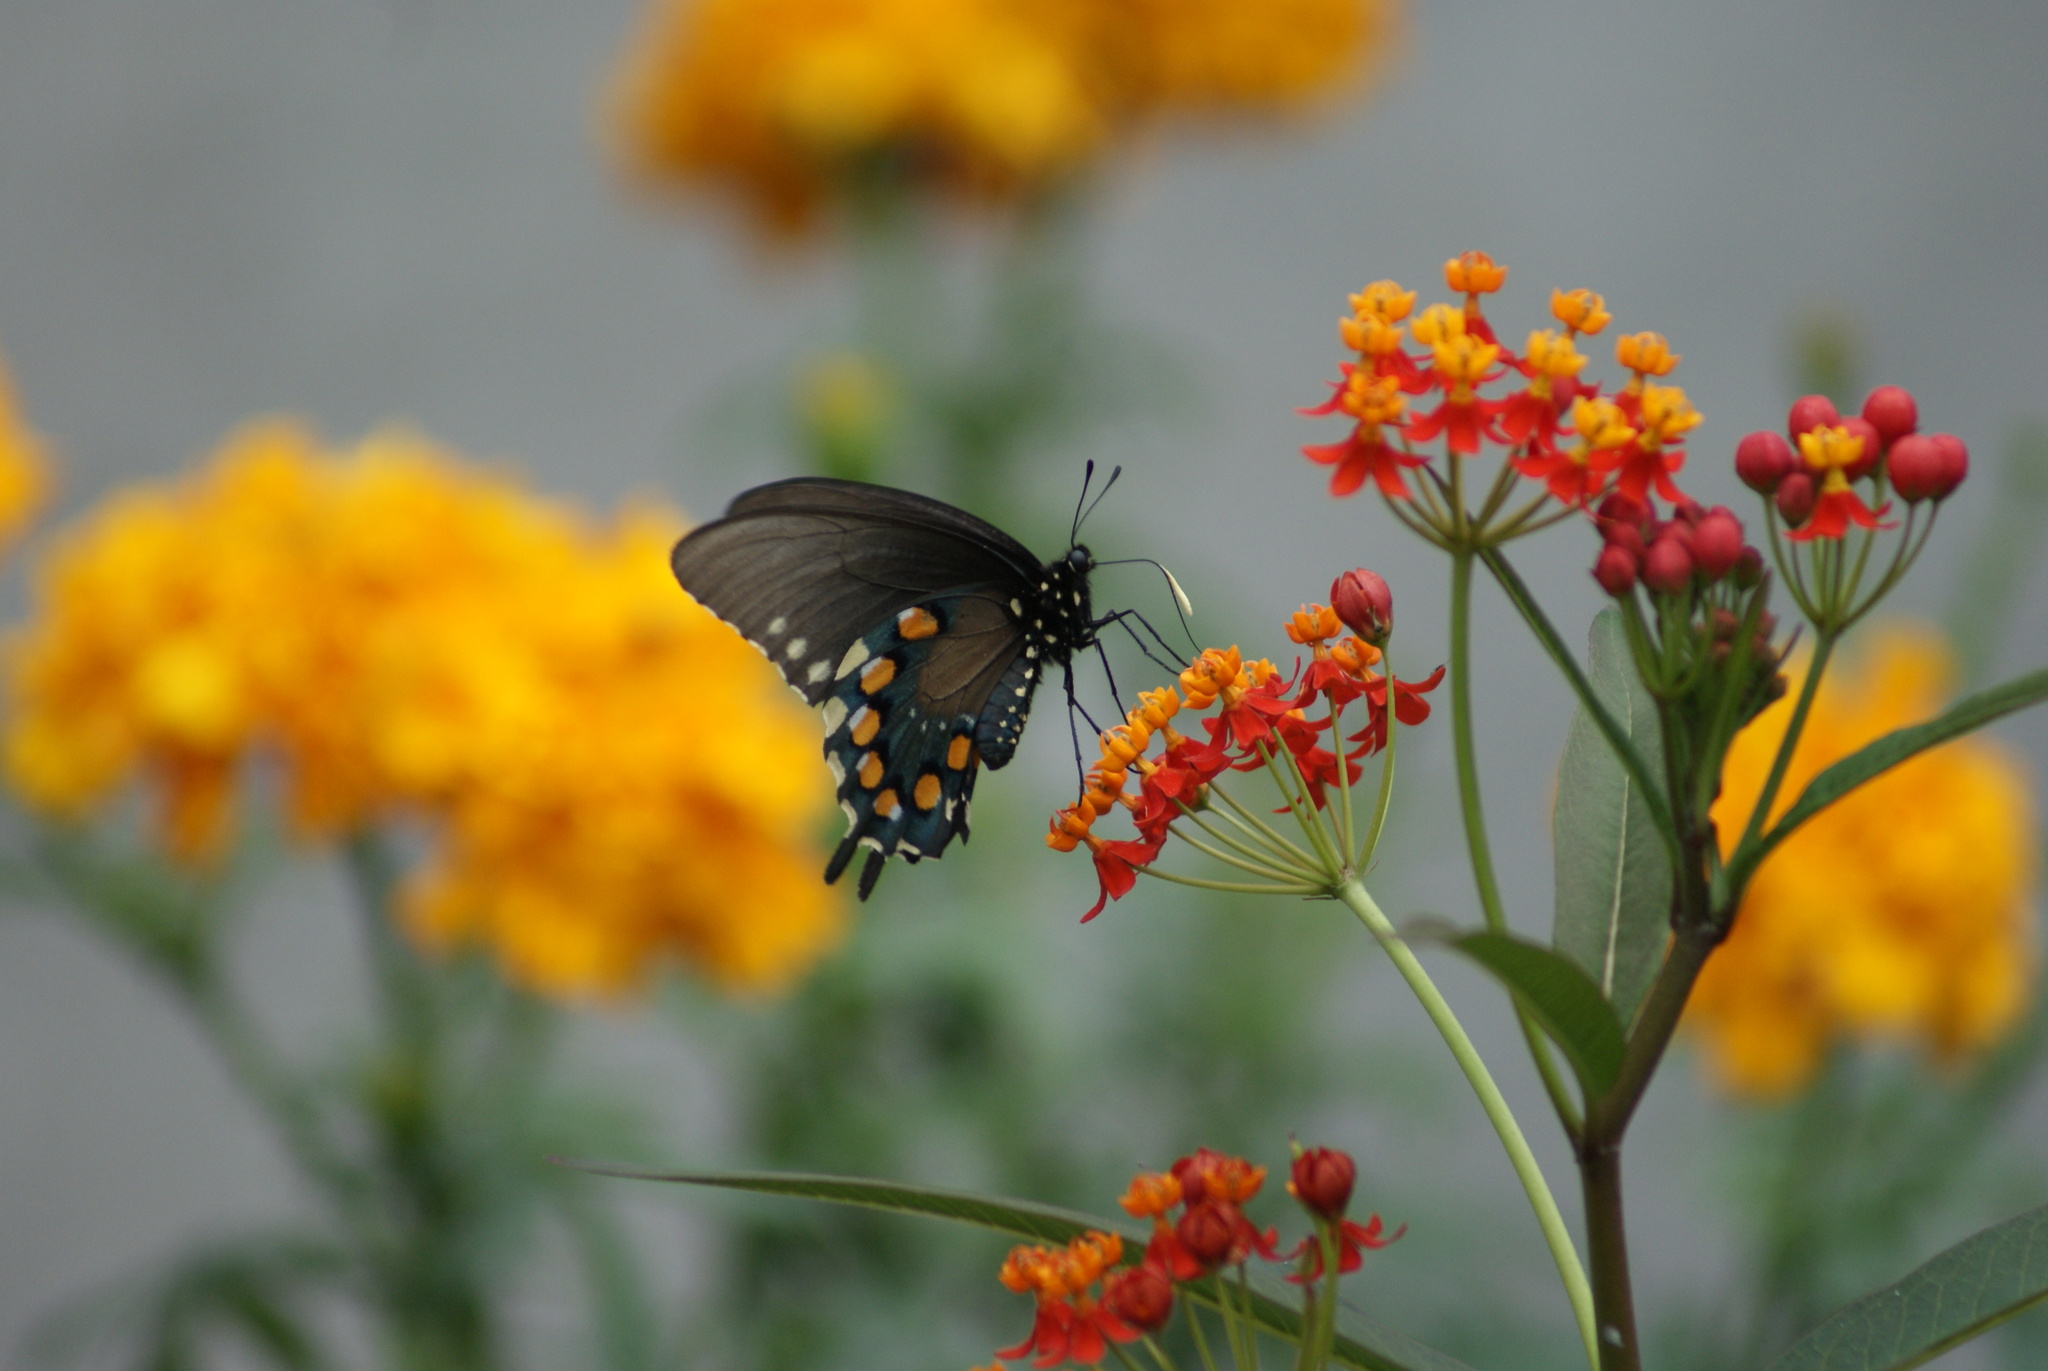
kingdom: Animalia
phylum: Arthropoda
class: Insecta
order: Lepidoptera
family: Papilionidae
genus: Battus
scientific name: Battus philenor
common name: Pipevine swallowtail
